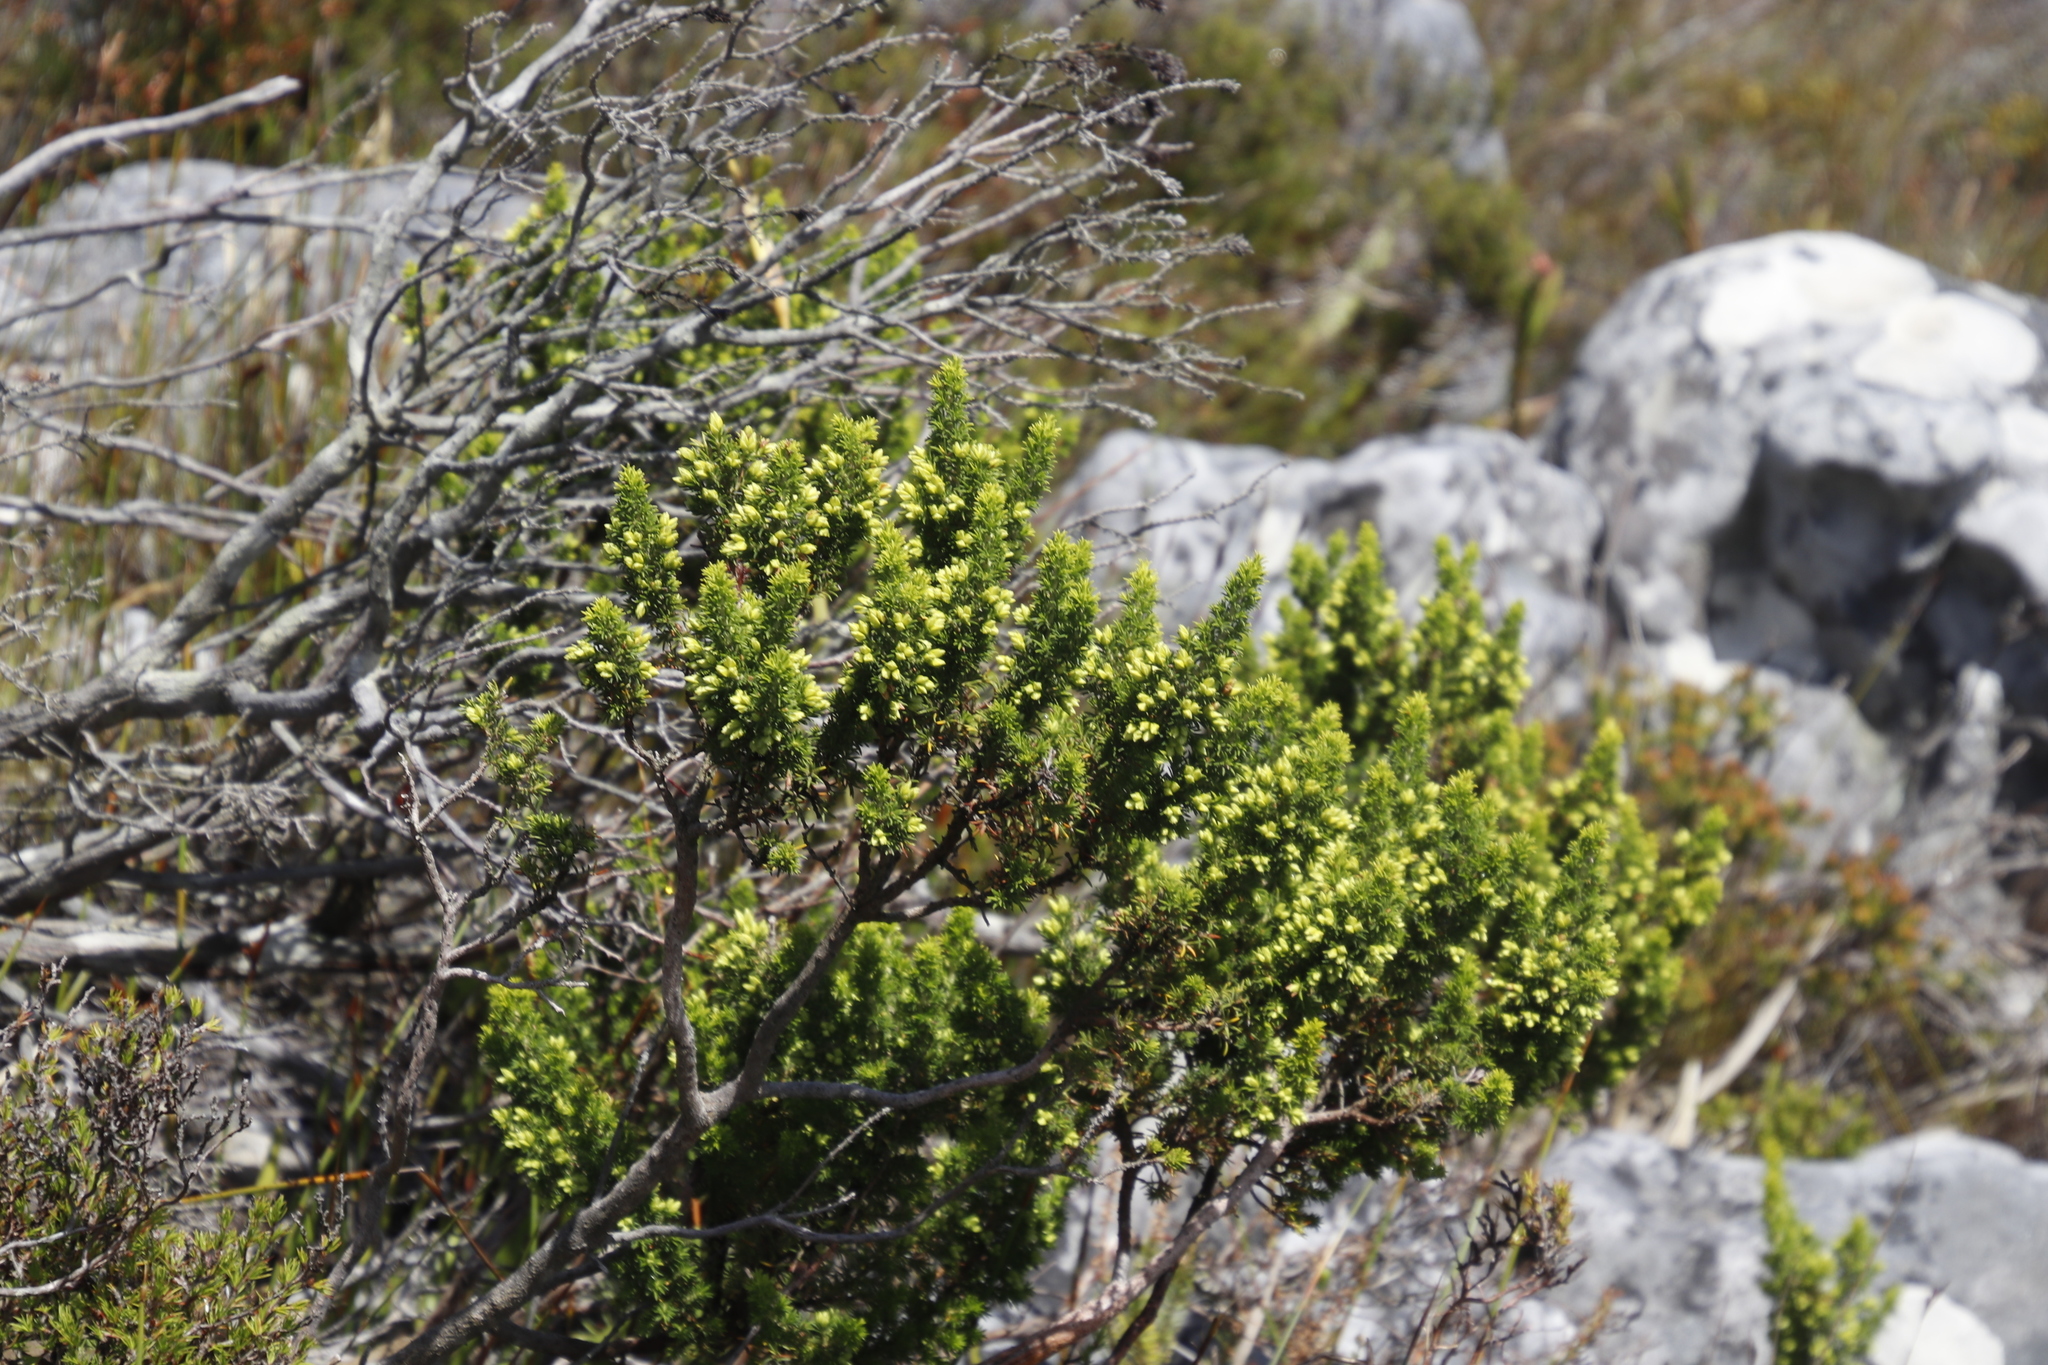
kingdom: Plantae
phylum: Tracheophyta
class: Magnoliopsida
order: Ericales
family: Ericaceae
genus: Erica
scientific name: Erica coccinea
